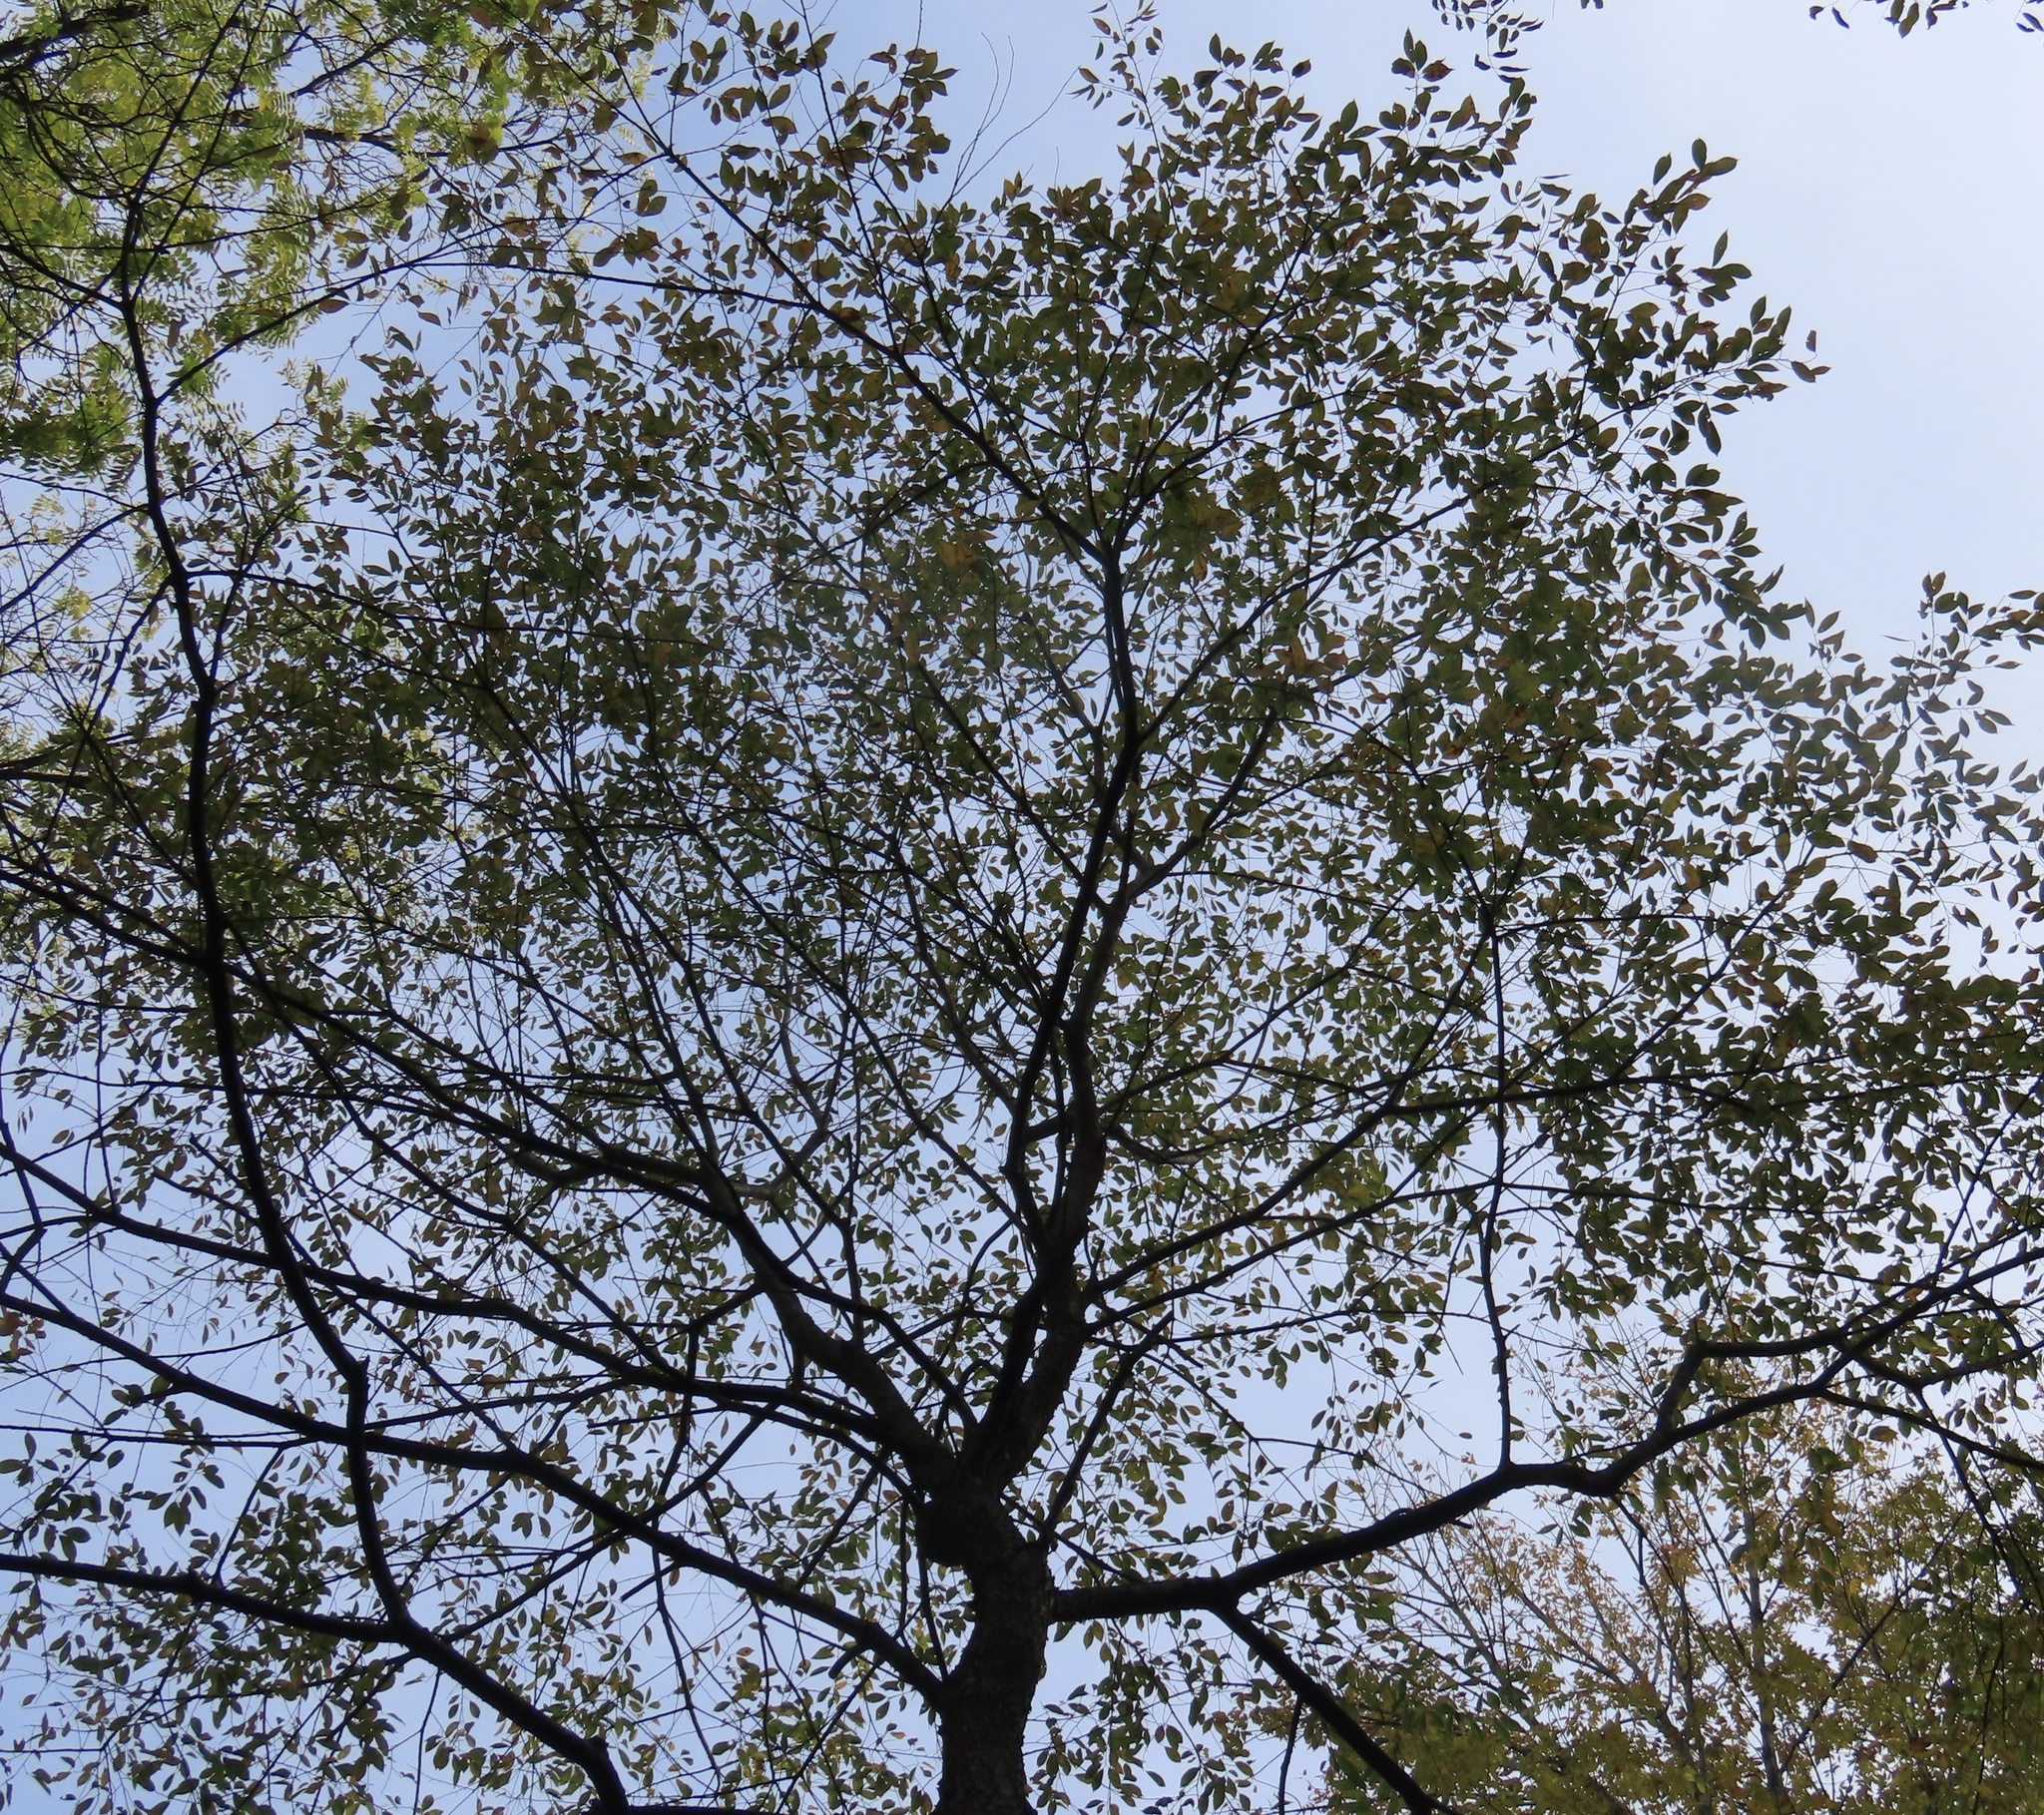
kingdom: Plantae
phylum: Tracheophyta
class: Magnoliopsida
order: Rosales
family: Rosaceae
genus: Prunus
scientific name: Prunus serotina
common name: Black cherry
